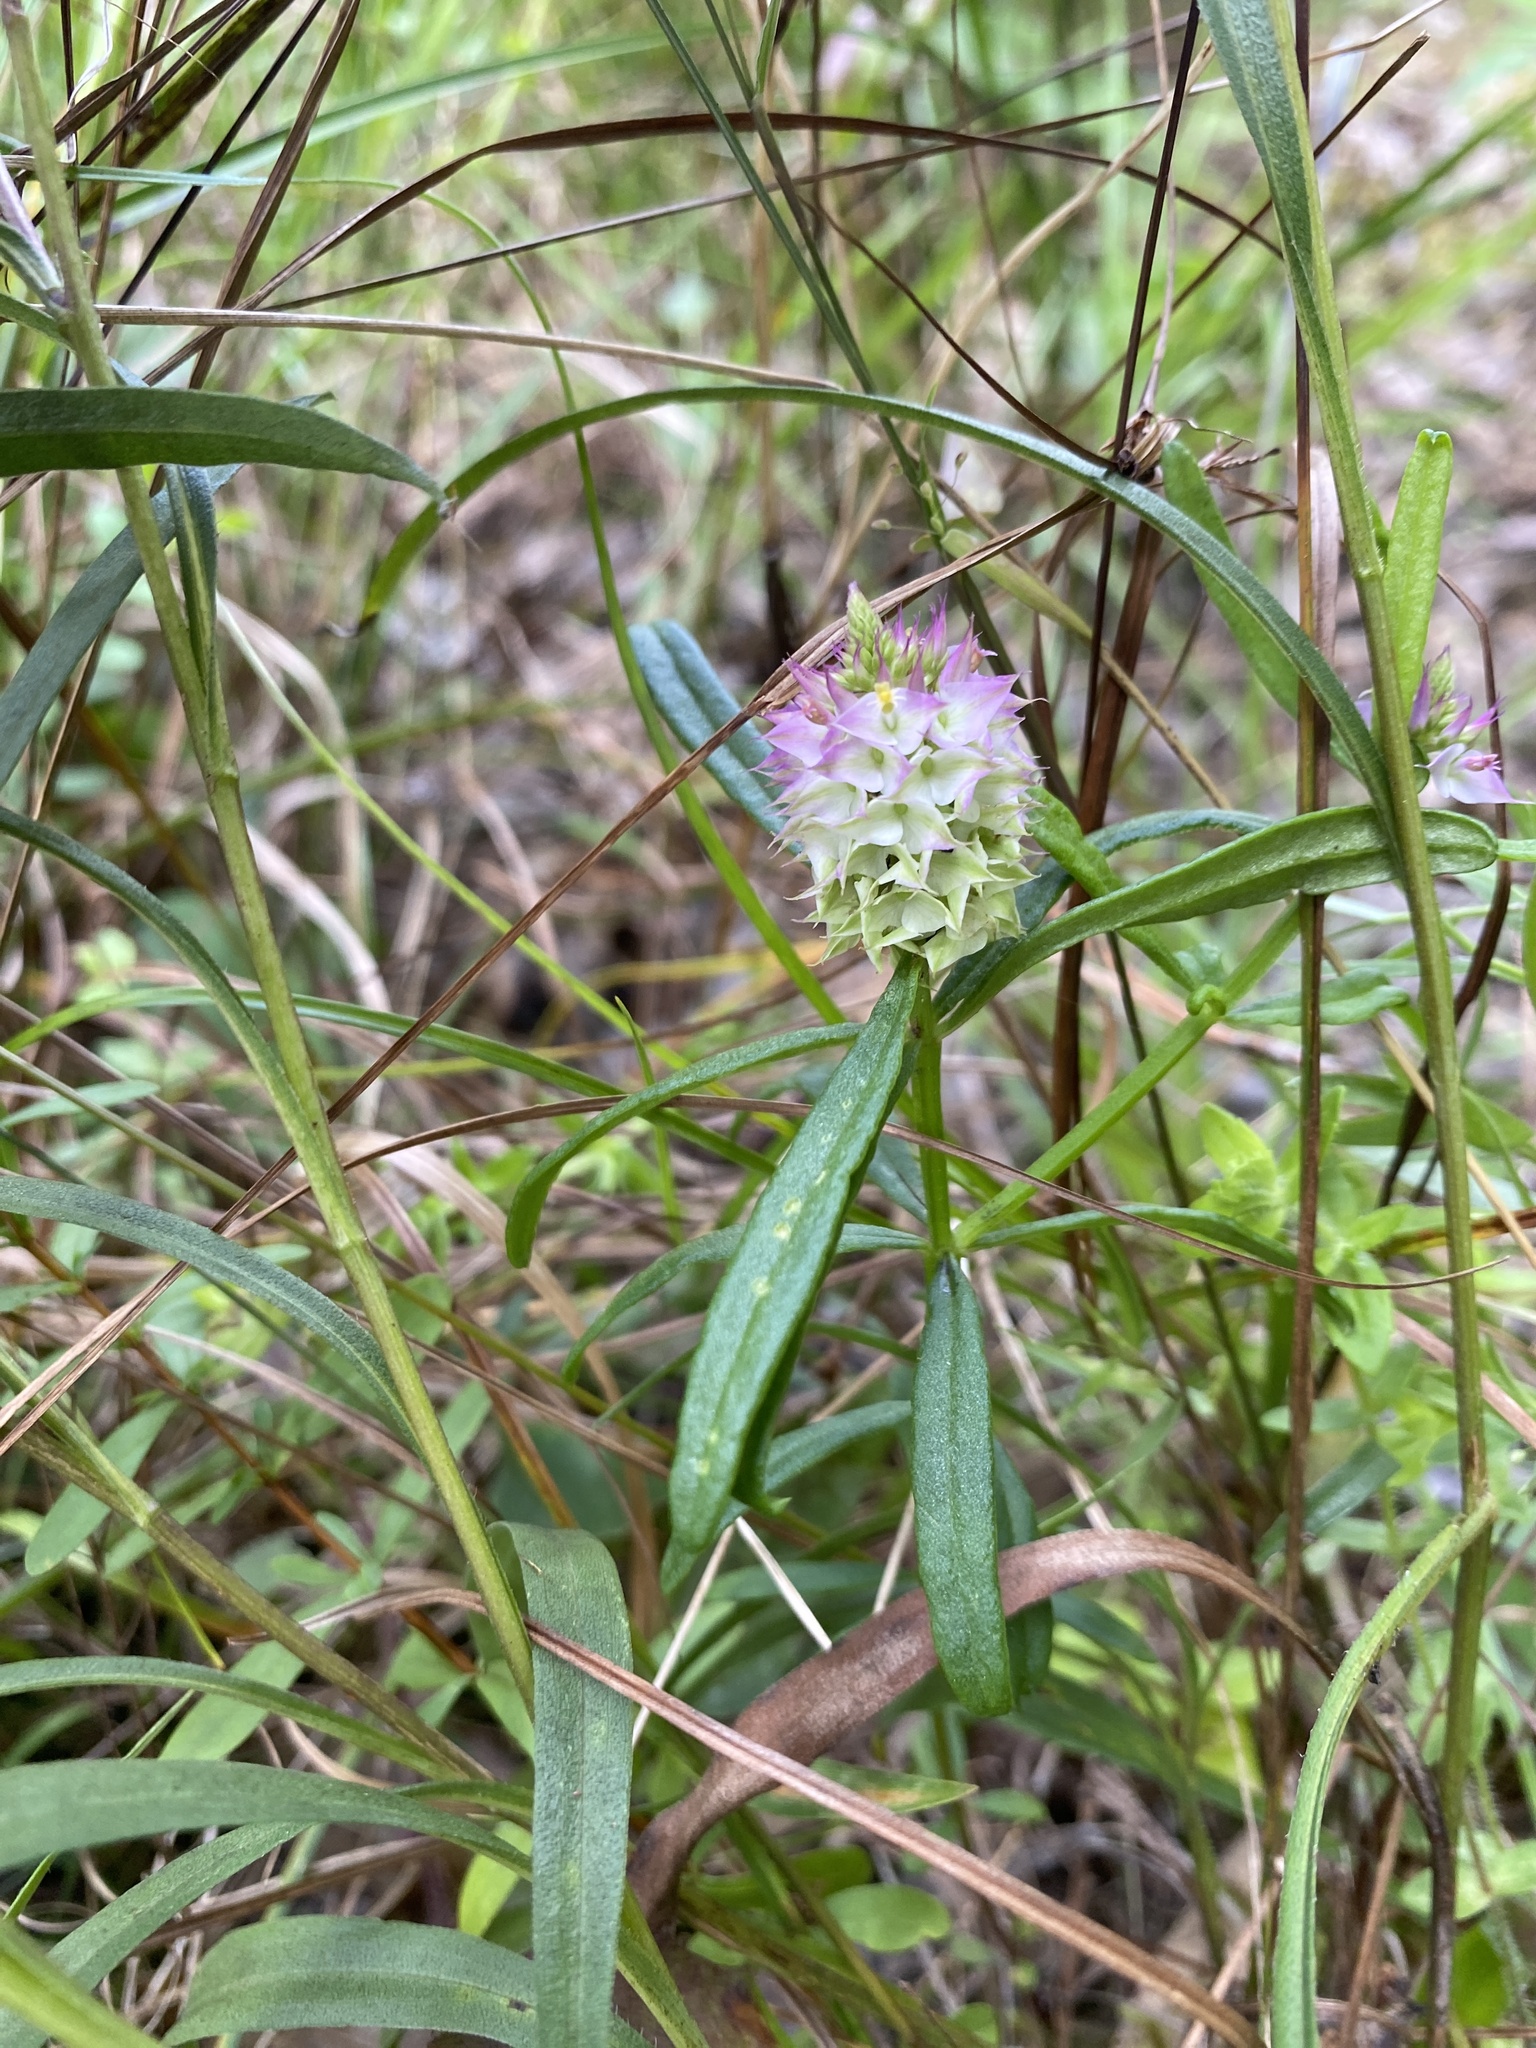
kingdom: Plantae
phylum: Tracheophyta
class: Magnoliopsida
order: Fabales
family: Polygalaceae
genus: Polygala
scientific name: Polygala cruciata
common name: Drumheads
